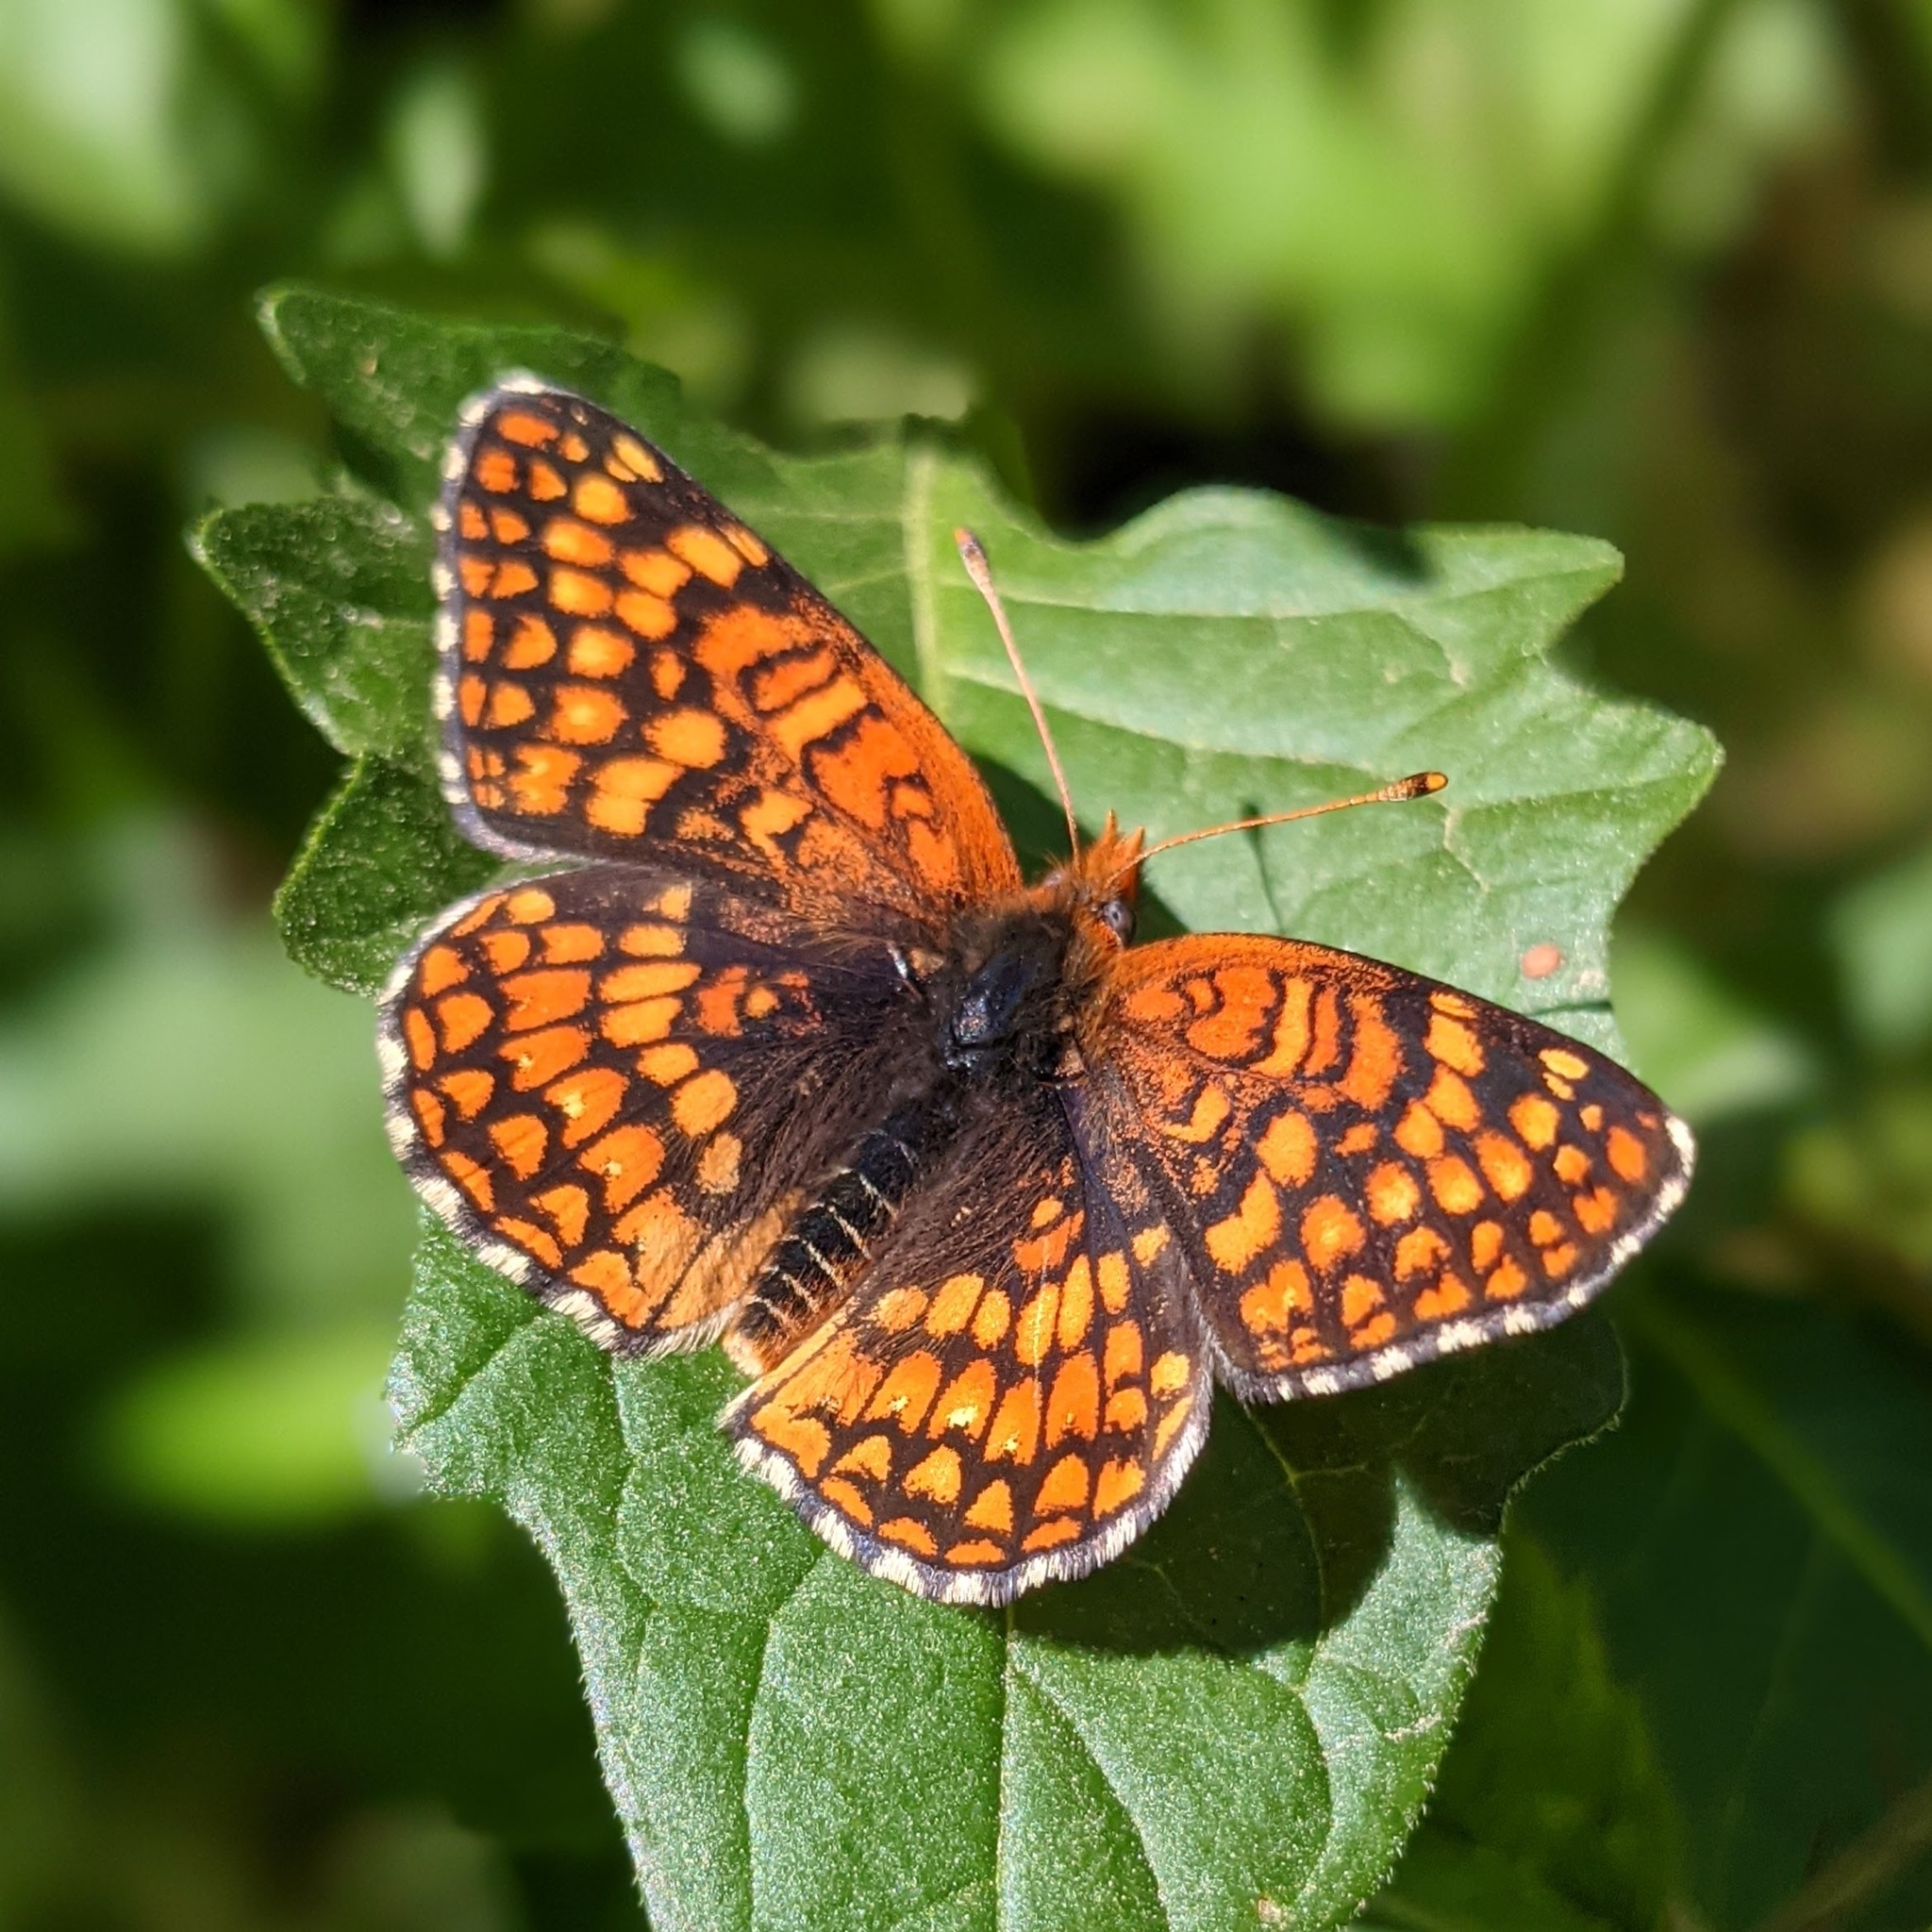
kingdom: Animalia
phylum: Arthropoda
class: Insecta
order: Lepidoptera
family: Nymphalidae
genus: Chlosyne
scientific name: Chlosyne palla
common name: Northern checkerspot
